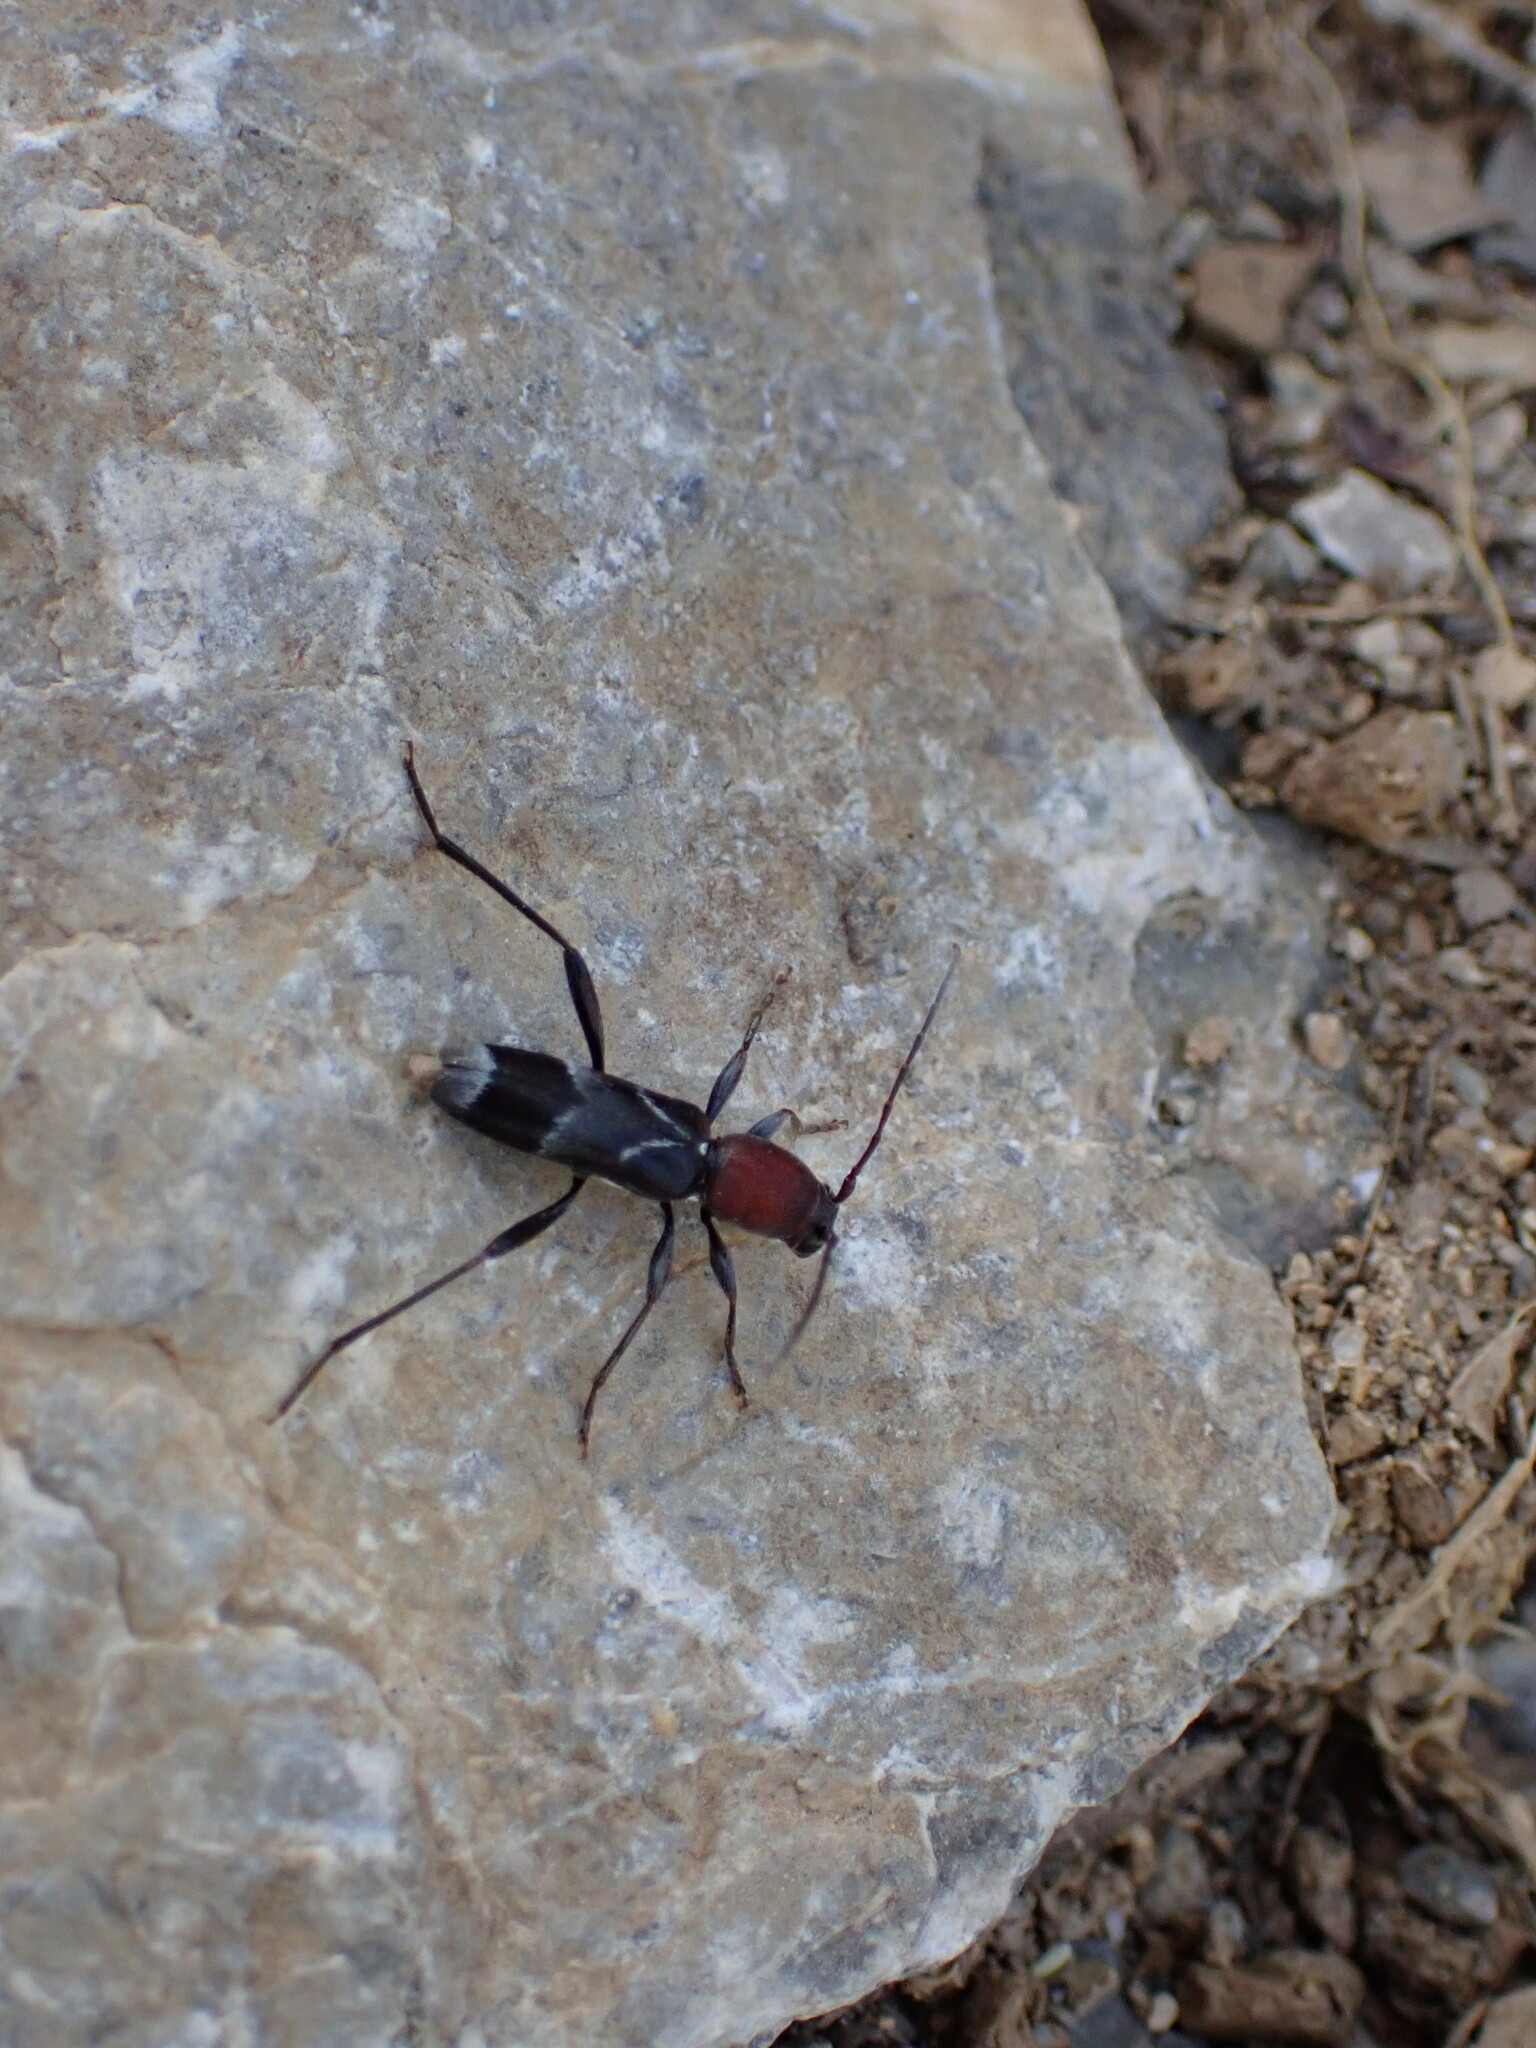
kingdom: Animalia
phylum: Arthropoda
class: Insecta
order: Coleoptera
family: Cerambycidae
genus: Chlorophorus
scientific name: Chlorophorus ruficornis
